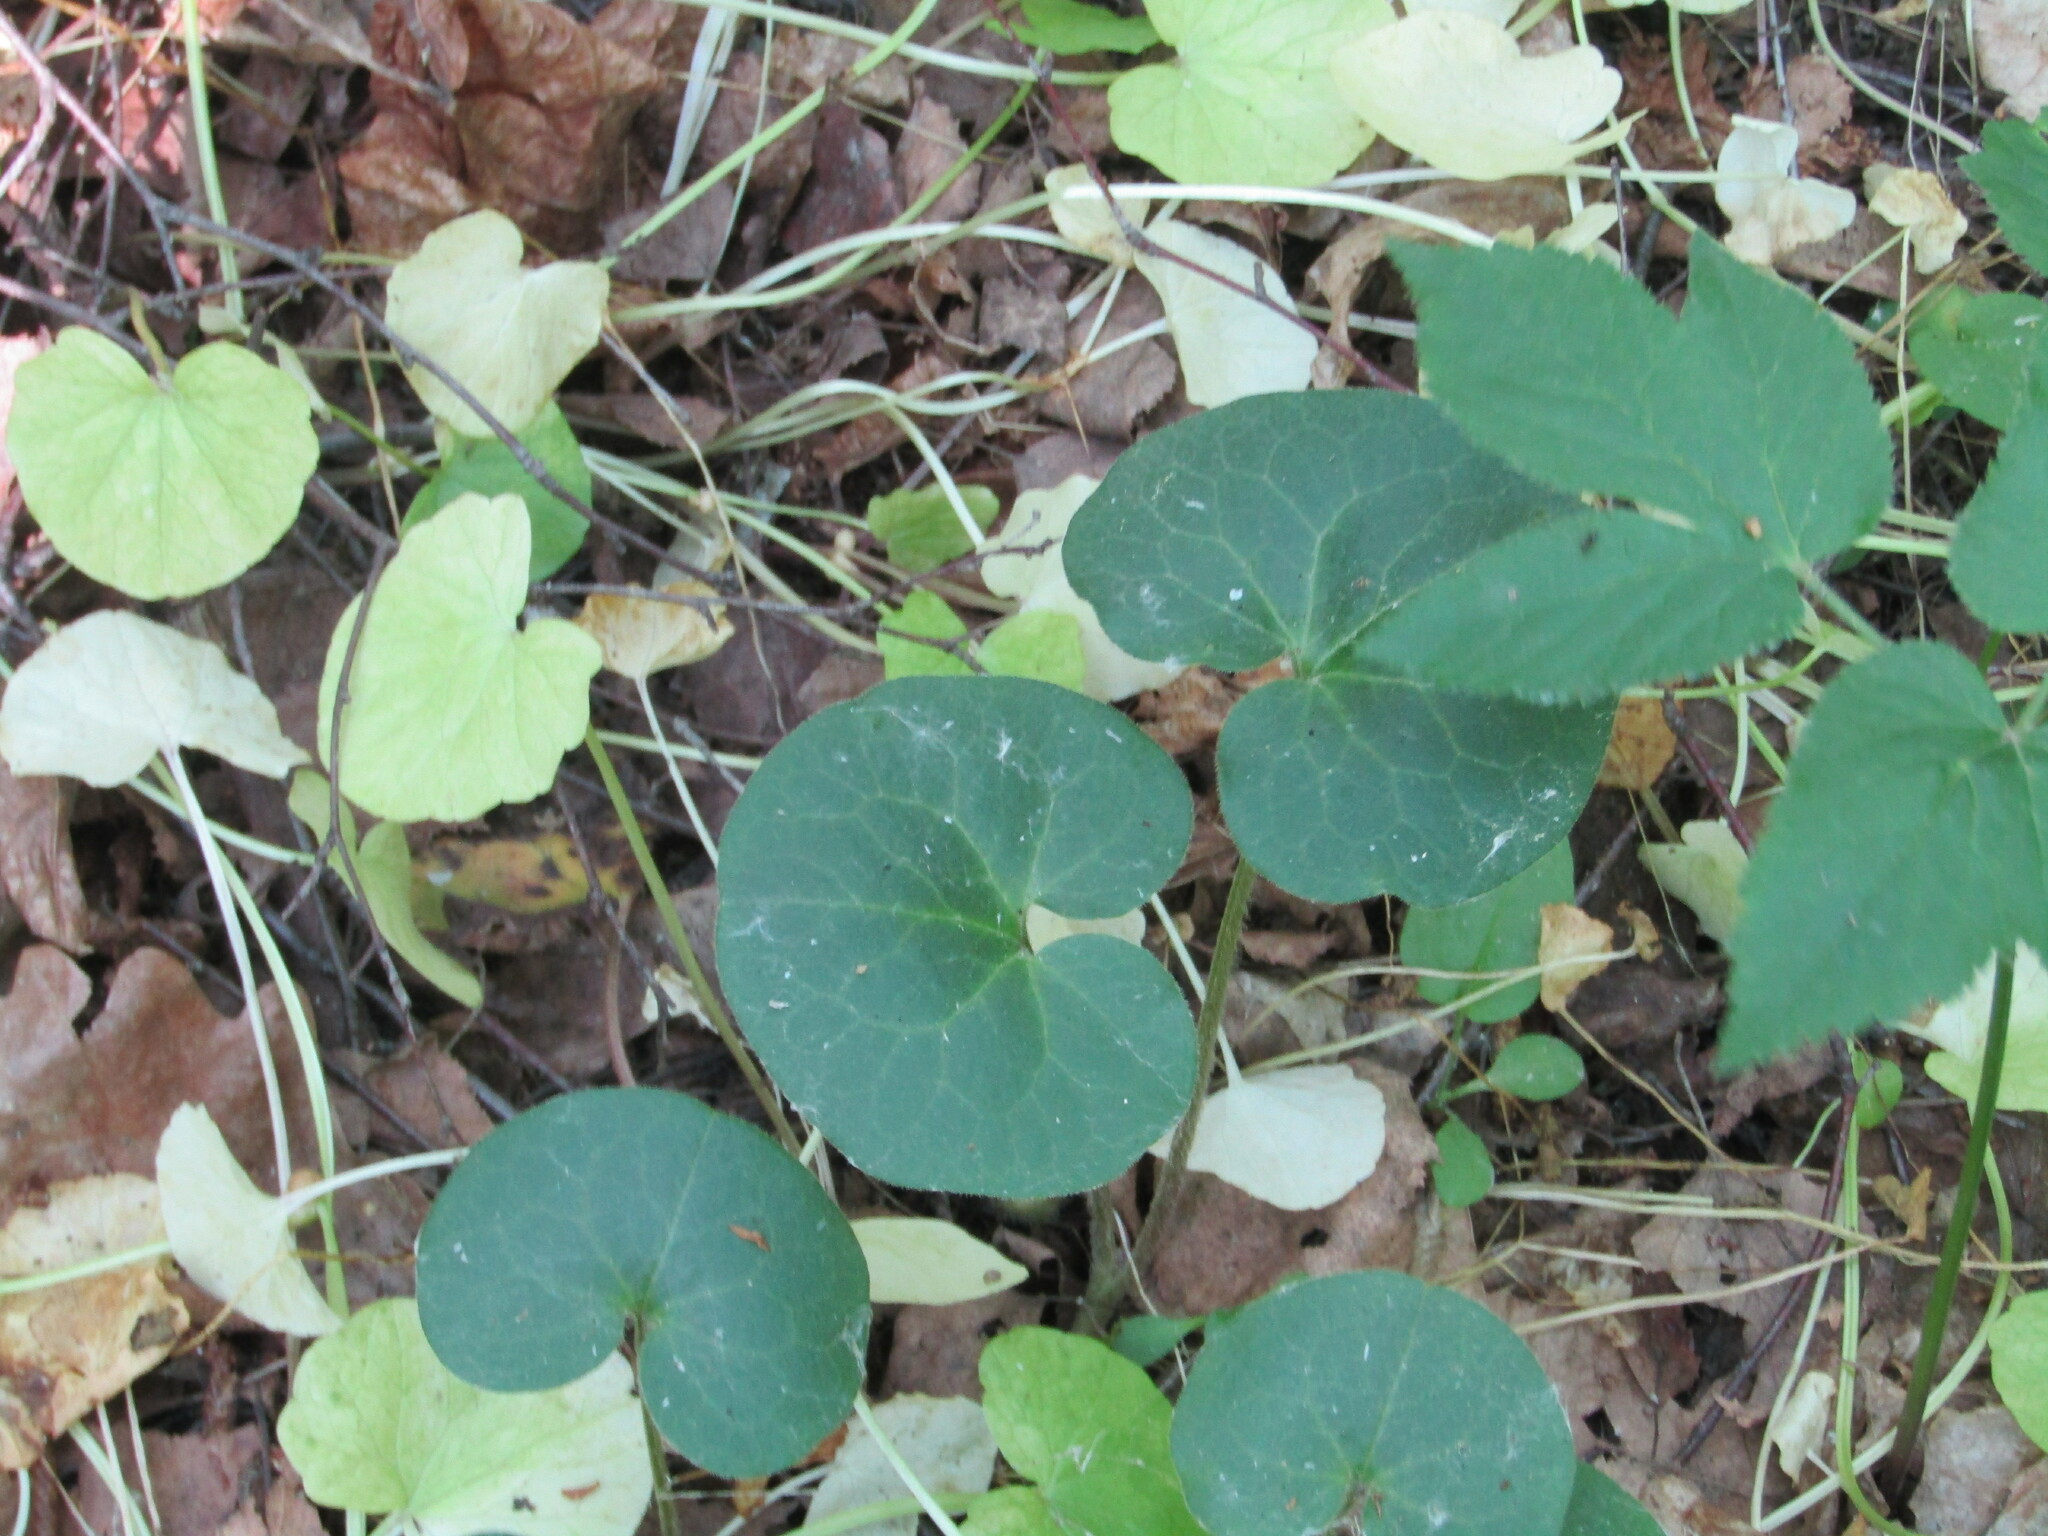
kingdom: Plantae
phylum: Tracheophyta
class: Magnoliopsida
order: Piperales
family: Aristolochiaceae
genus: Asarum
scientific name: Asarum europaeum
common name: Asarabacca
